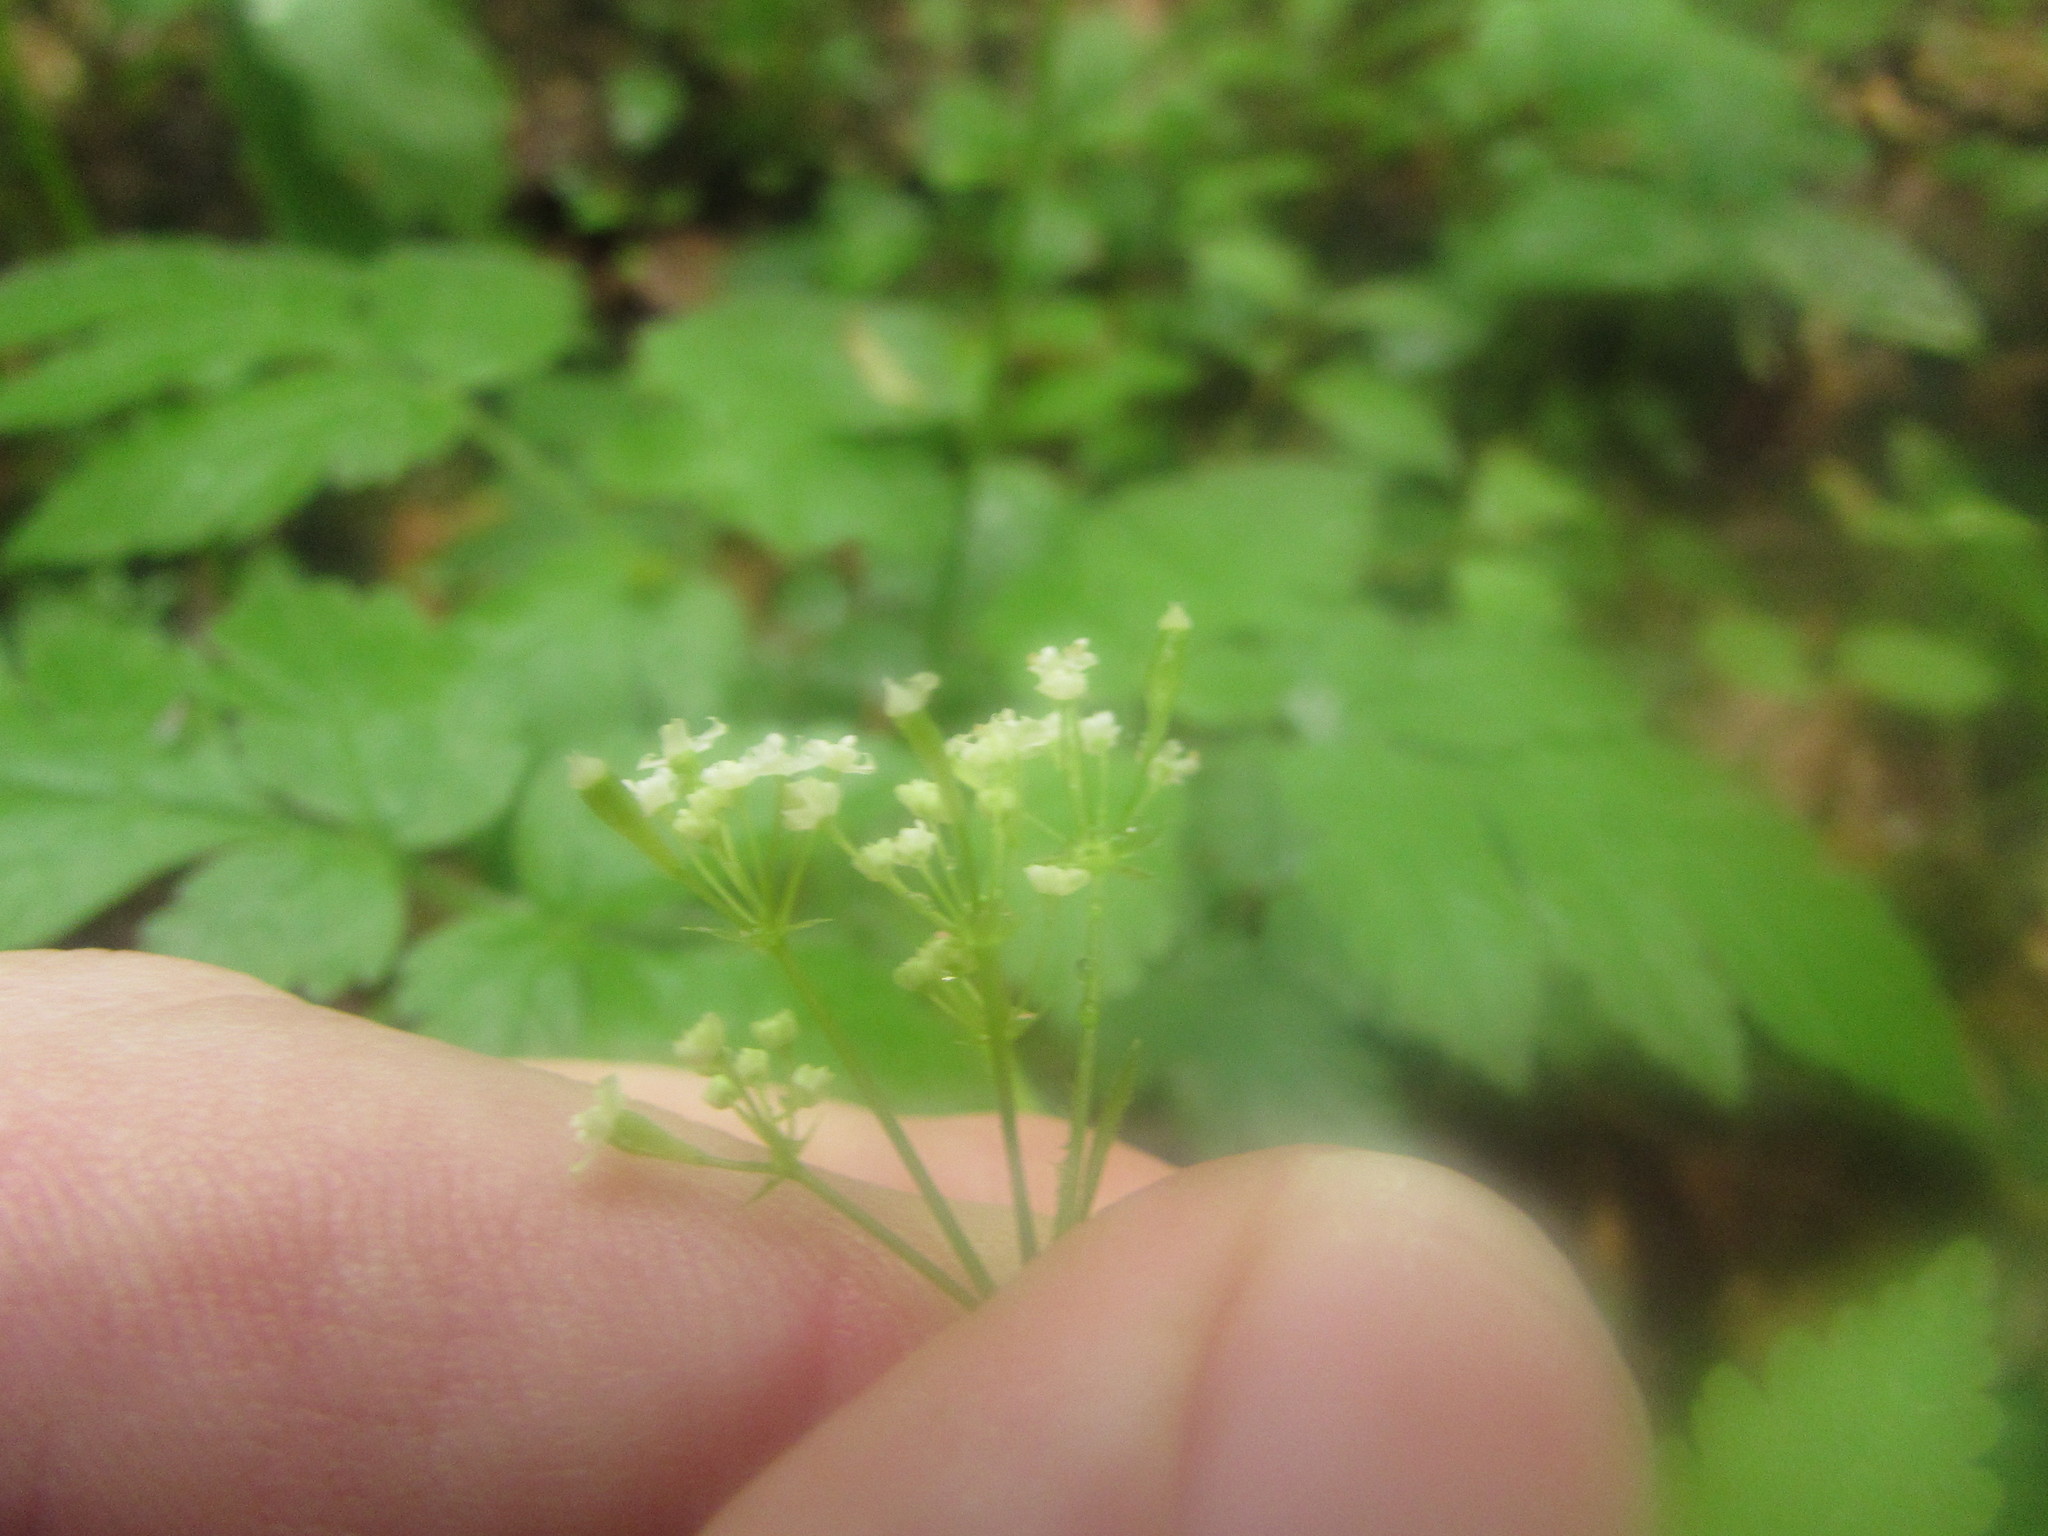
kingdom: Plantae
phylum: Tracheophyta
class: Magnoliopsida
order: Apiales
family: Apiaceae
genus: Osmorhiza
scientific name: Osmorhiza claytonii
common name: Hairy sweet cicely
